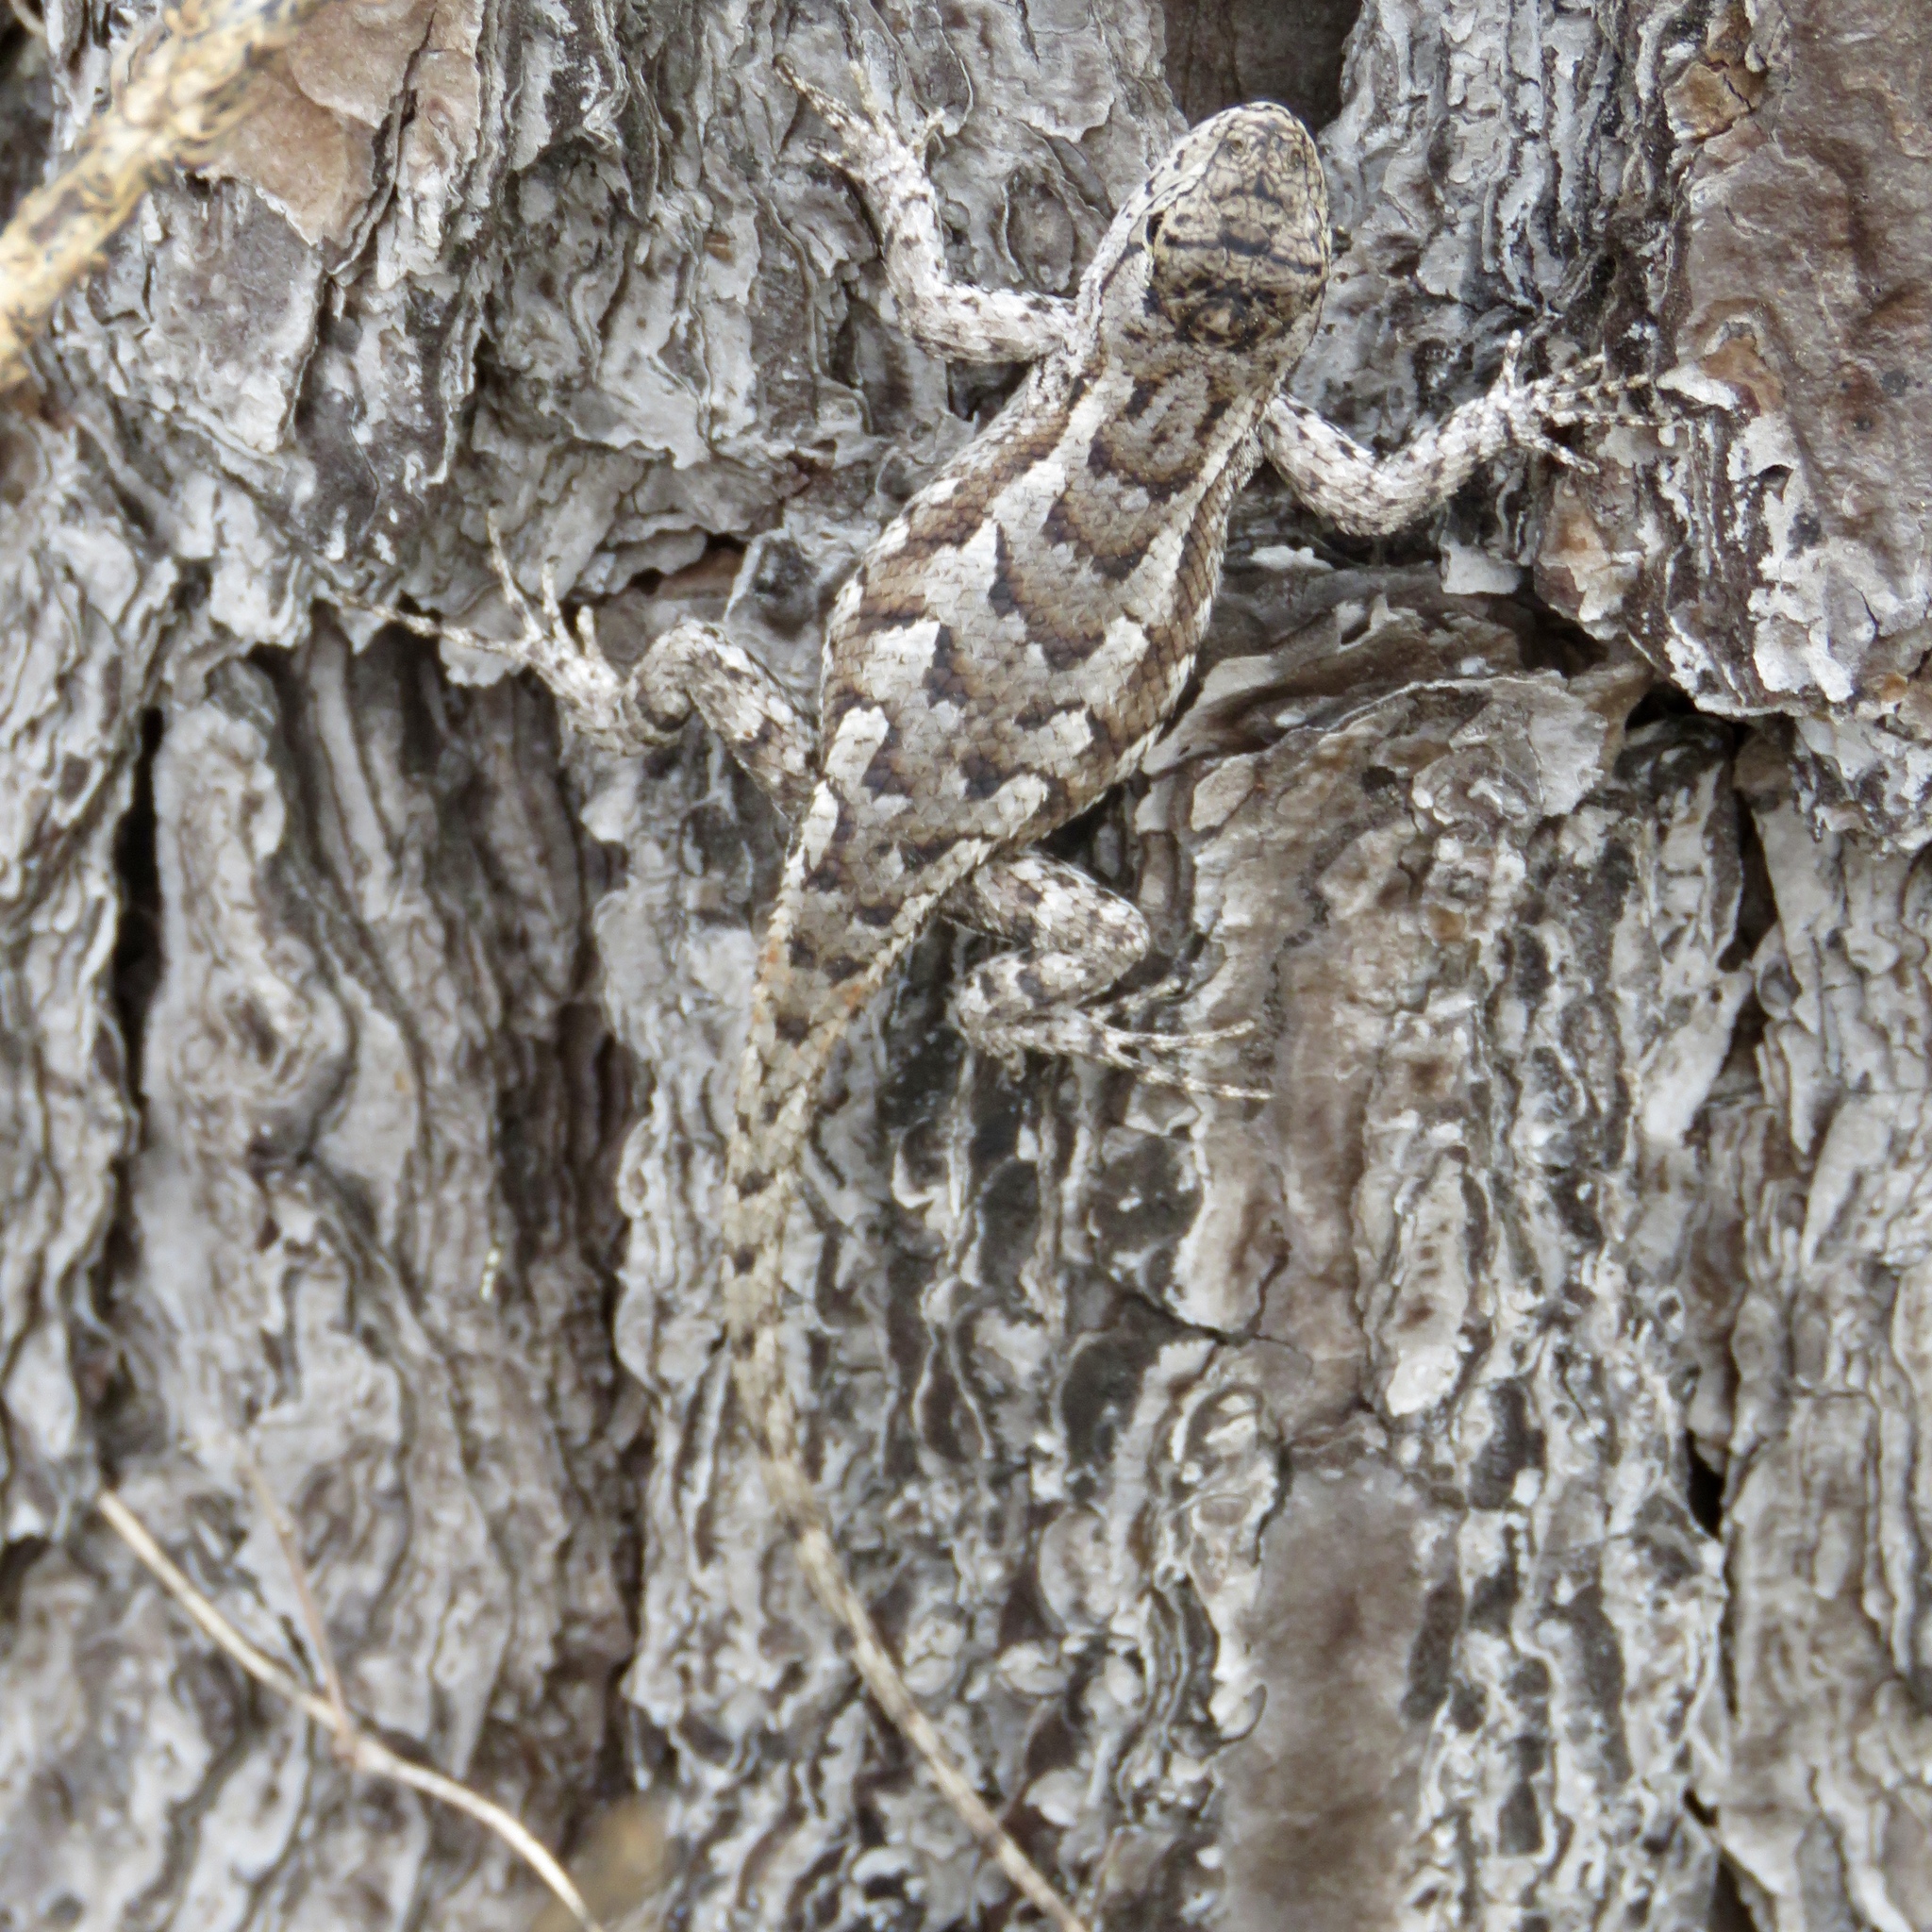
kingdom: Animalia
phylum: Chordata
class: Squamata
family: Phrynosomatidae
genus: Sceloporus
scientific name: Sceloporus consobrinus
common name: Southern prairie lizard
